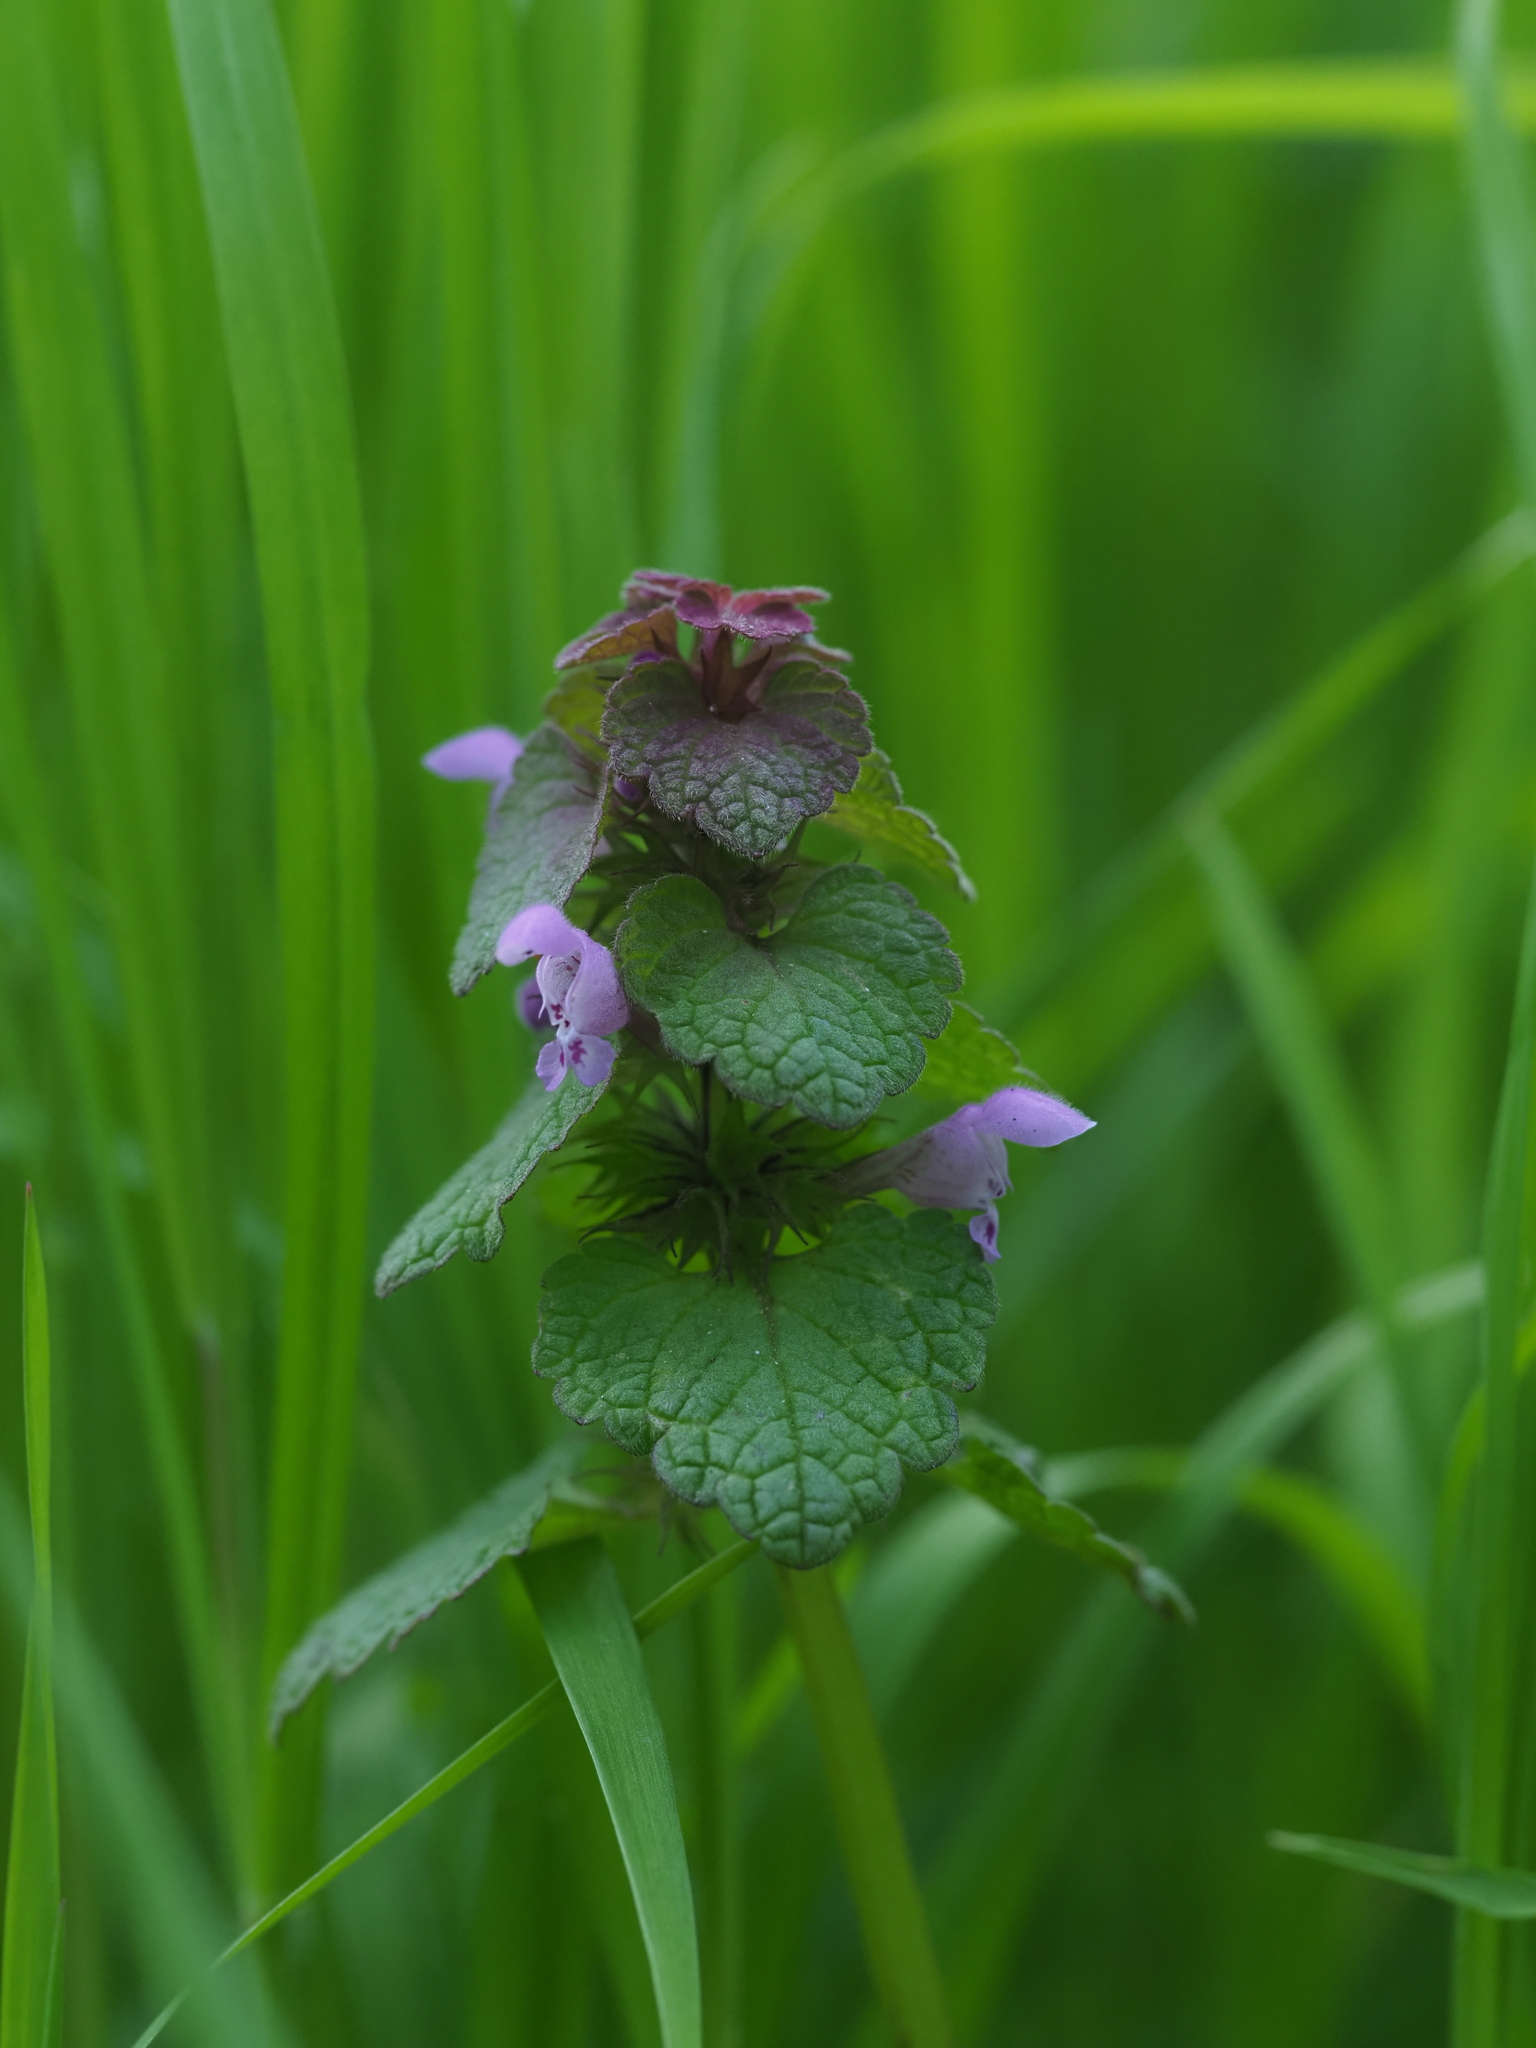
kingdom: Plantae
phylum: Tracheophyta
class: Magnoliopsida
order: Lamiales
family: Lamiaceae
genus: Lamium
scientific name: Lamium purpureum
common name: Red dead-nettle
